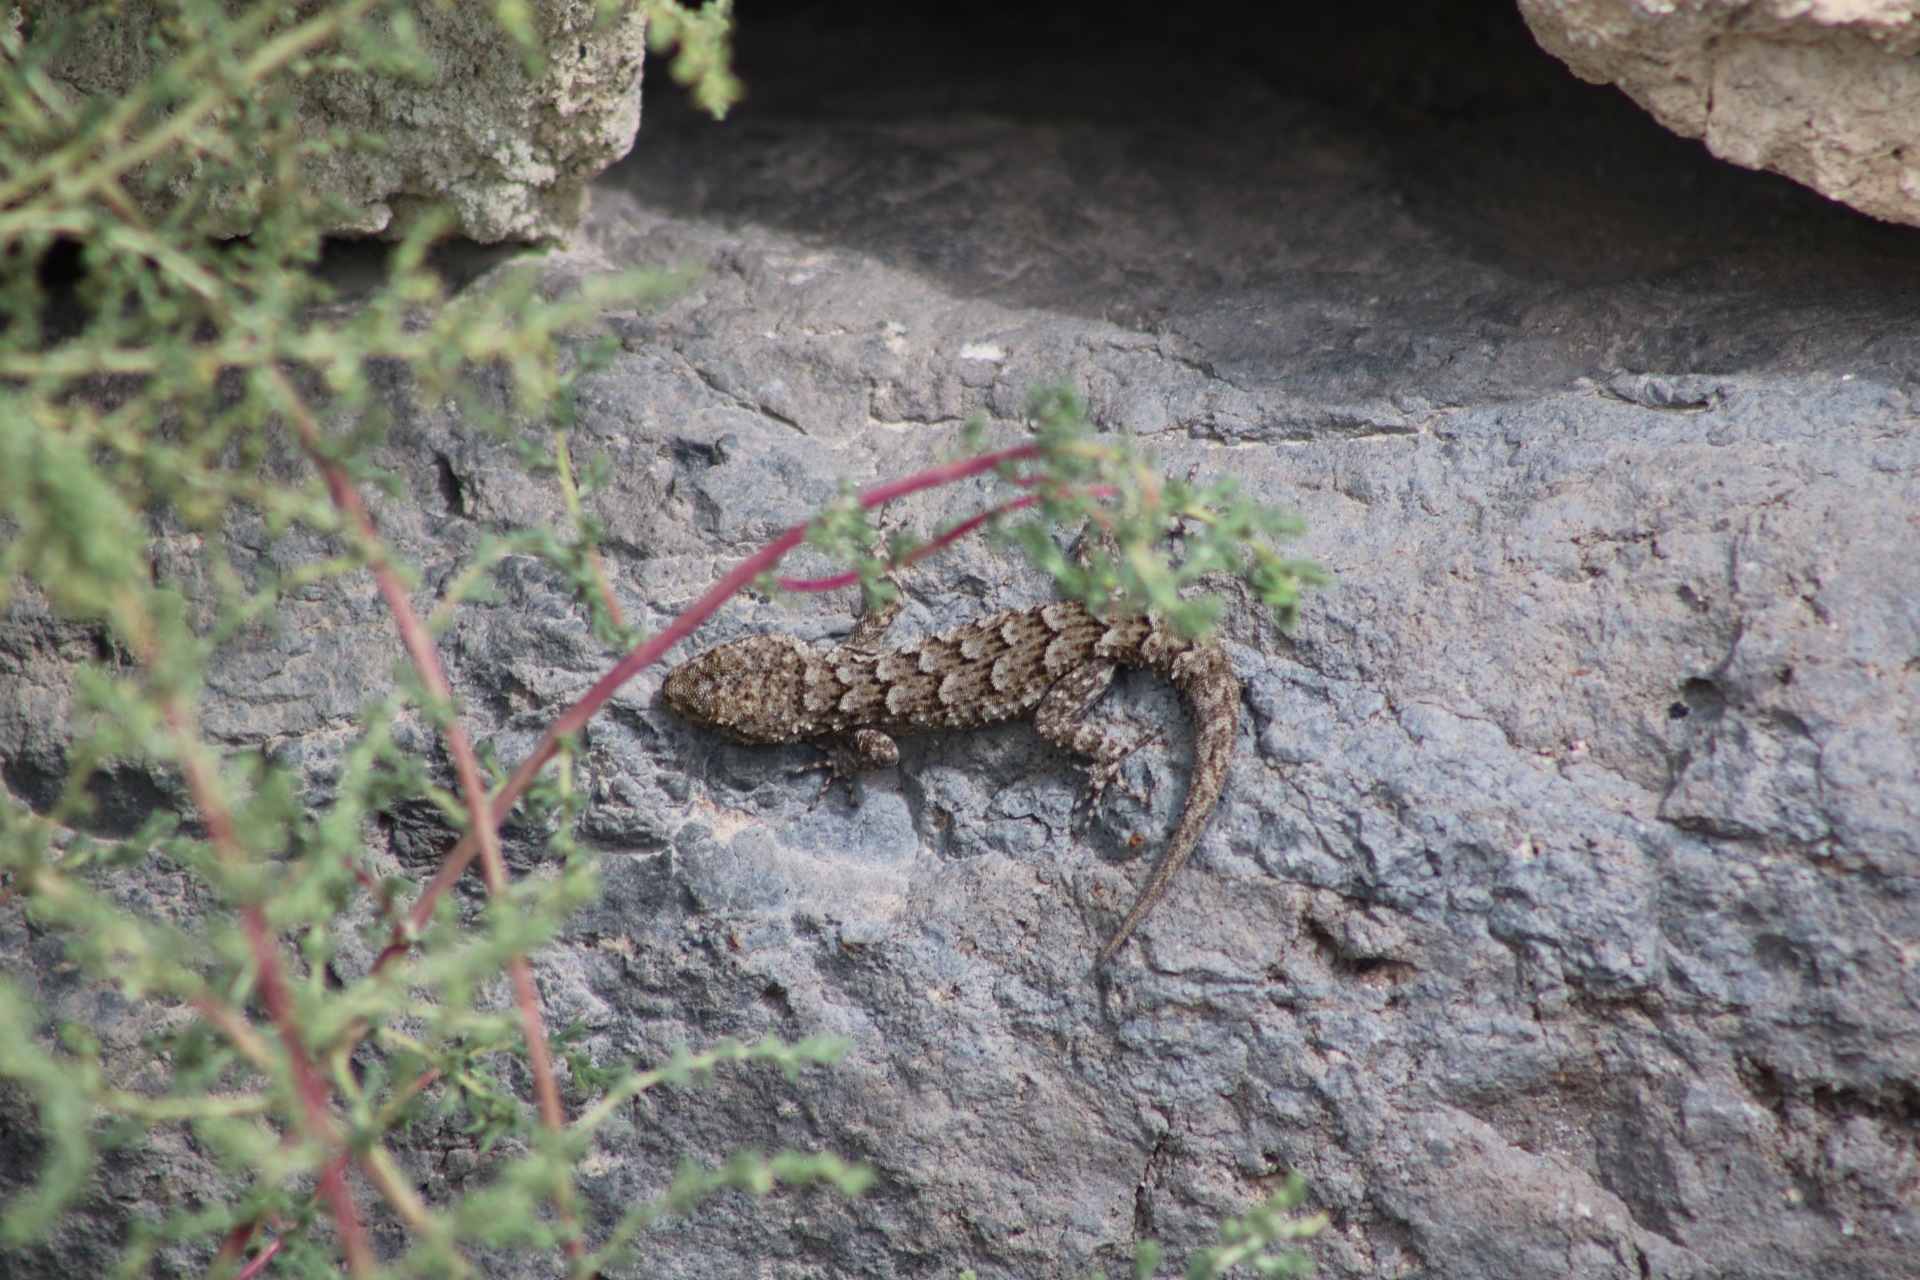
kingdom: Animalia
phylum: Chordata
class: Squamata
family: Gekkonidae
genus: Mediodactylus
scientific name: Mediodactylus kotschyi
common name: Kotschy's gecko
